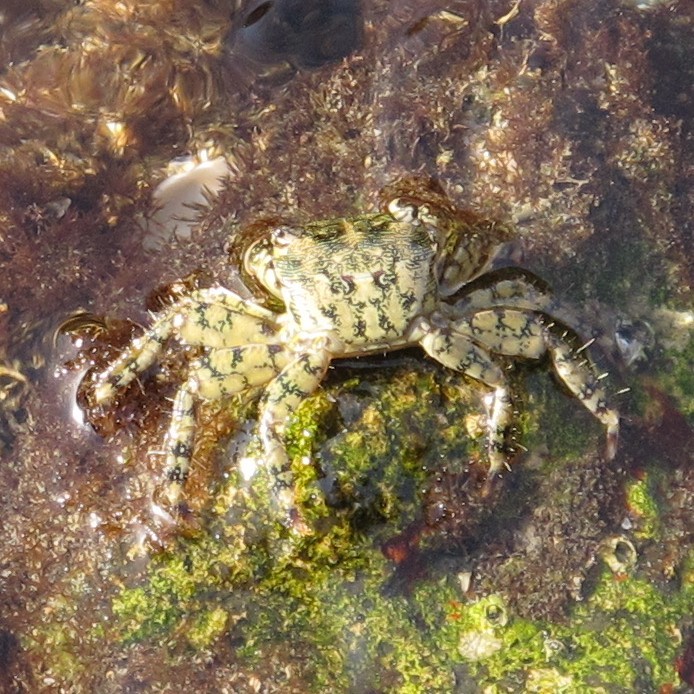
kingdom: Animalia
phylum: Arthropoda
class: Malacostraca
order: Decapoda
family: Grapsidae
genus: Pachygrapsus
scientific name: Pachygrapsus marmoratus
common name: Marbled rock crab
